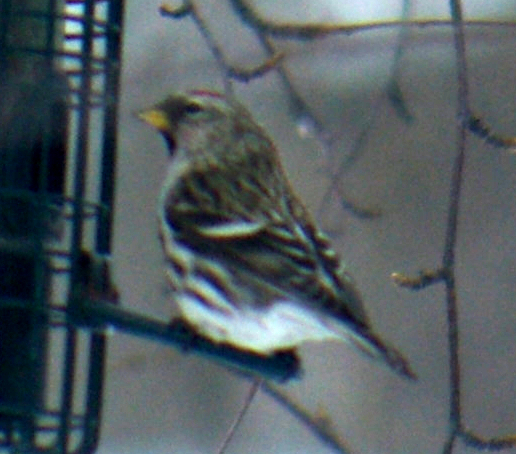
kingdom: Animalia
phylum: Chordata
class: Aves
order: Passeriformes
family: Fringillidae
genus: Acanthis
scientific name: Acanthis flammea
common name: Common redpoll
